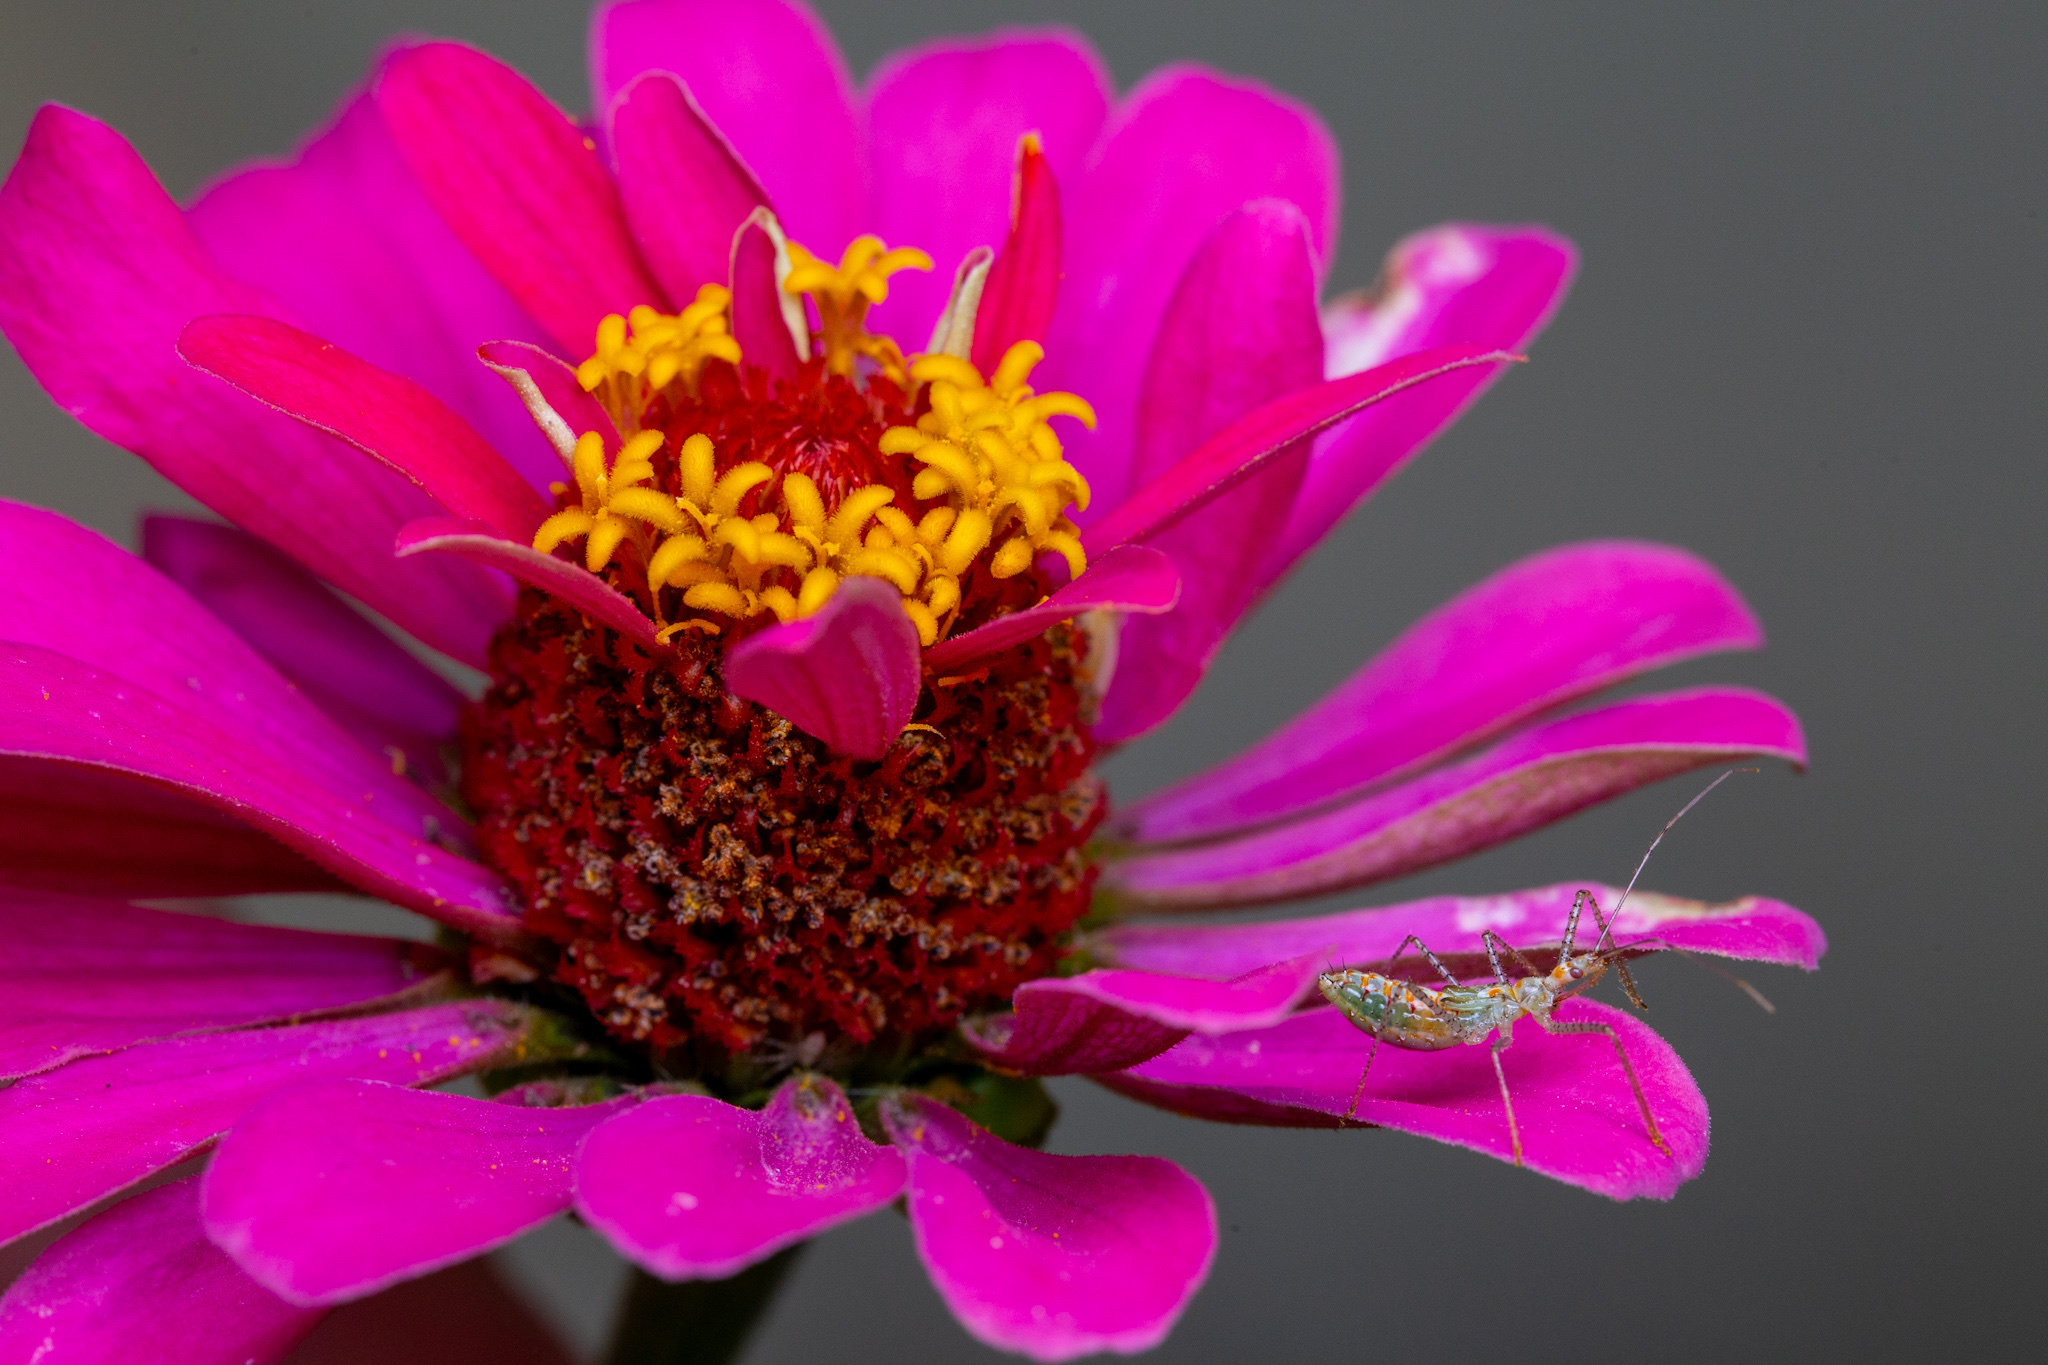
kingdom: Animalia
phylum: Arthropoda
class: Insecta
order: Hemiptera
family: Reduviidae
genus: Zelus
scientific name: Zelus renardii
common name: Assassin bug
